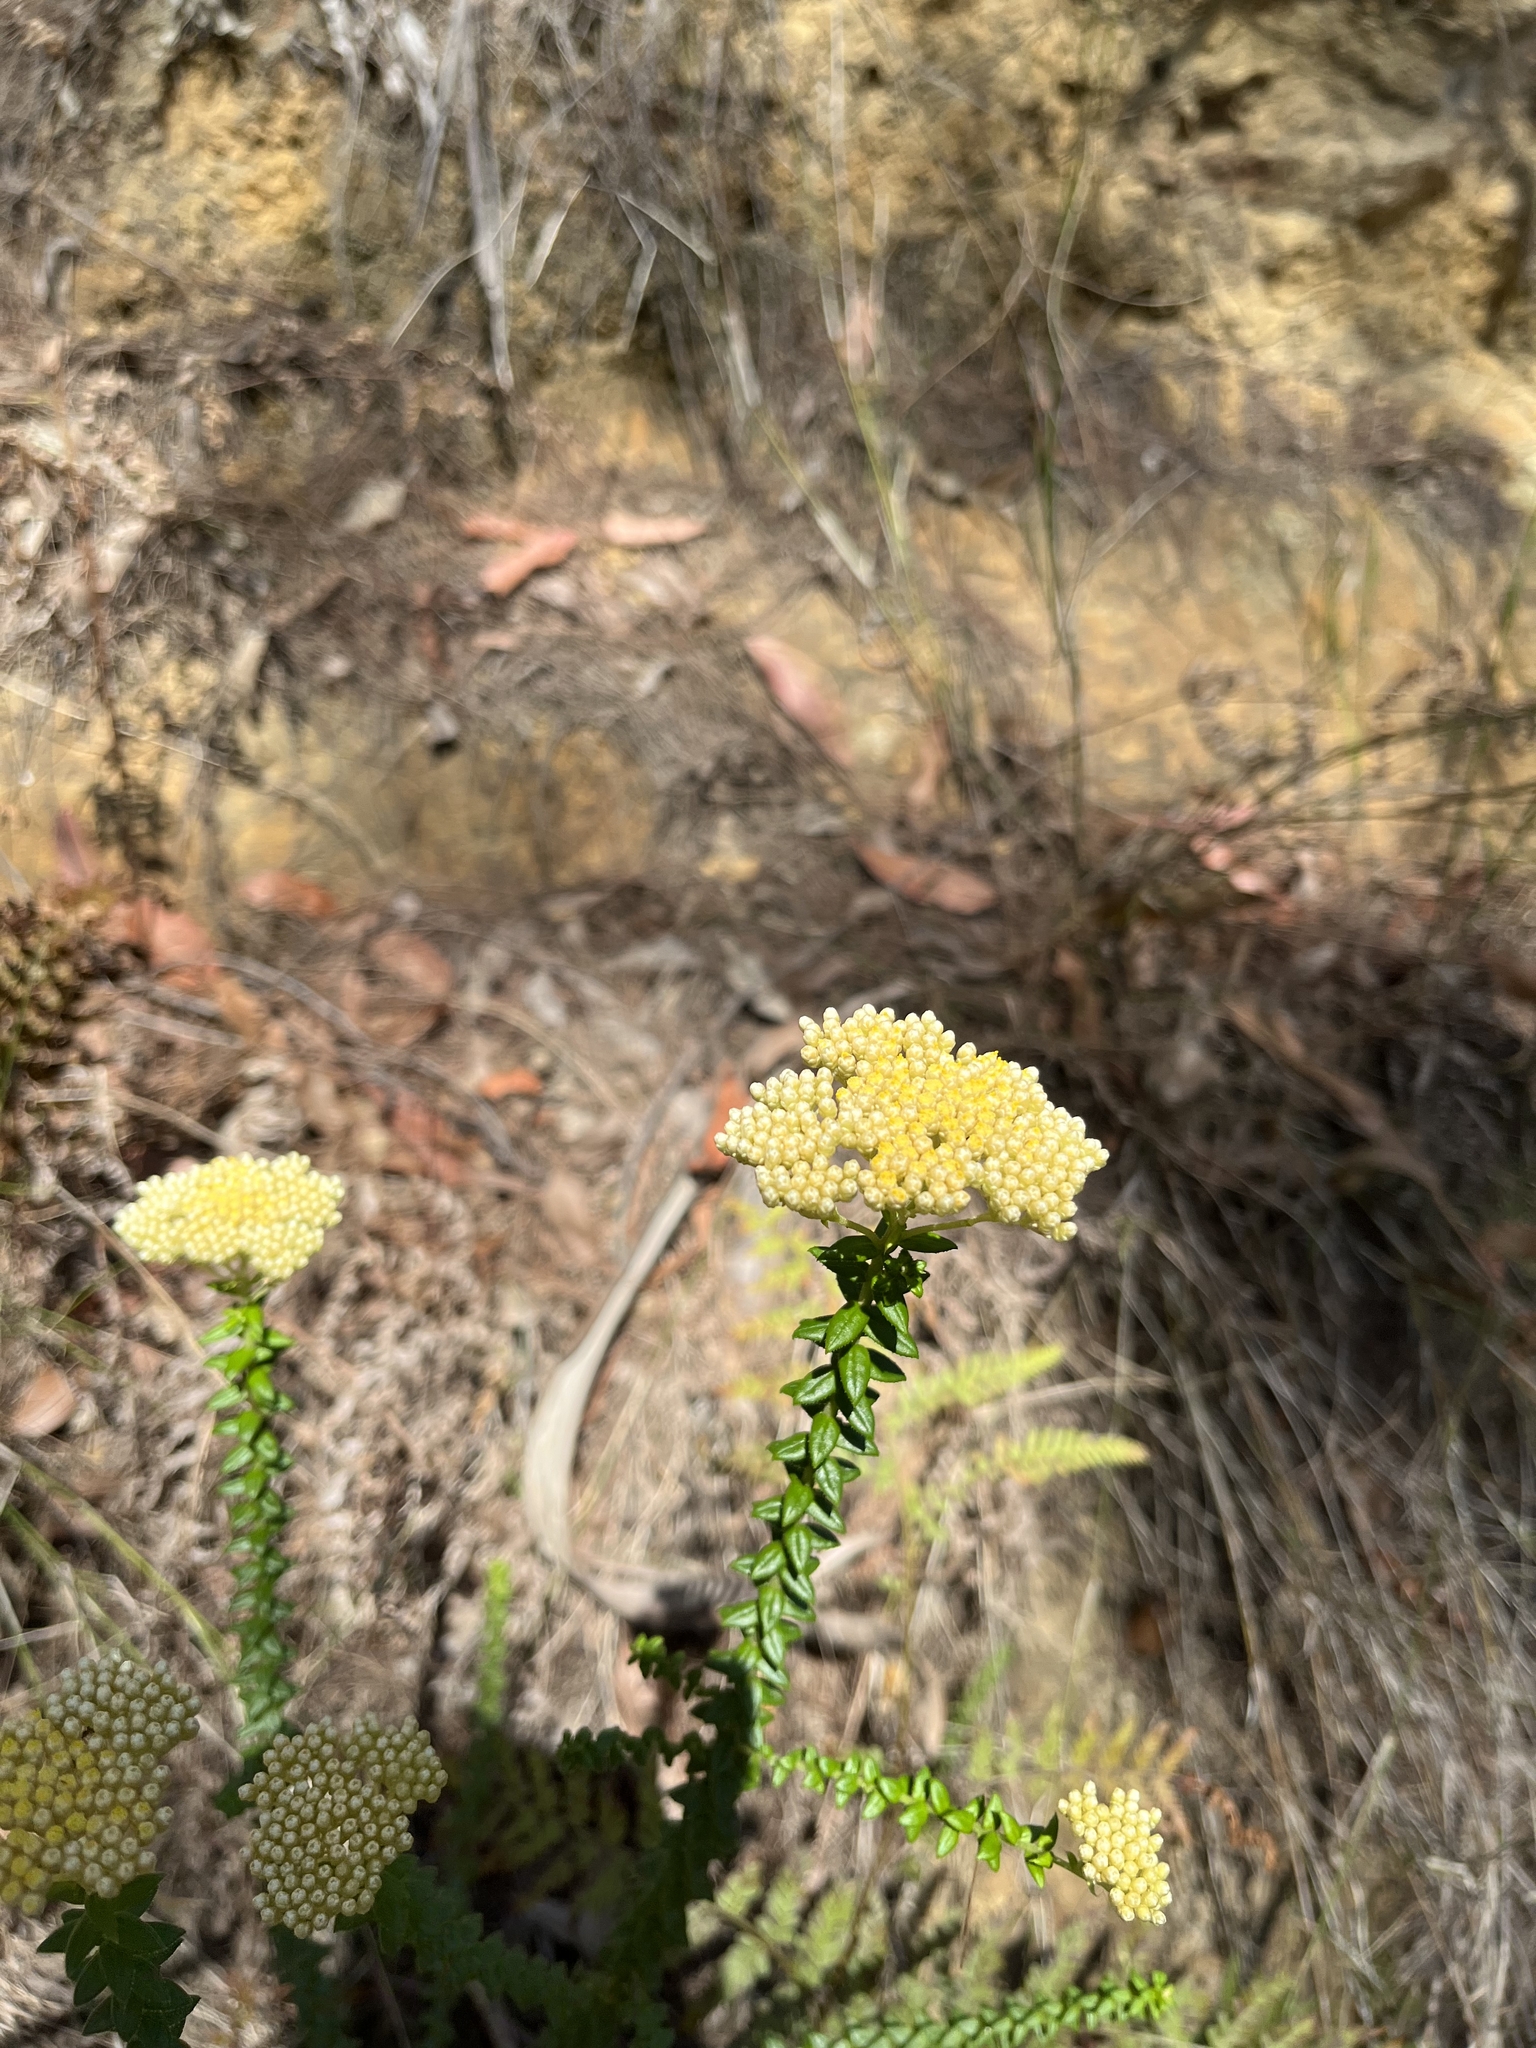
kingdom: Plantae
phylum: Tracheophyta
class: Magnoliopsida
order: Asterales
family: Asteraceae
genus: Cassinia
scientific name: Cassinia denticulata
